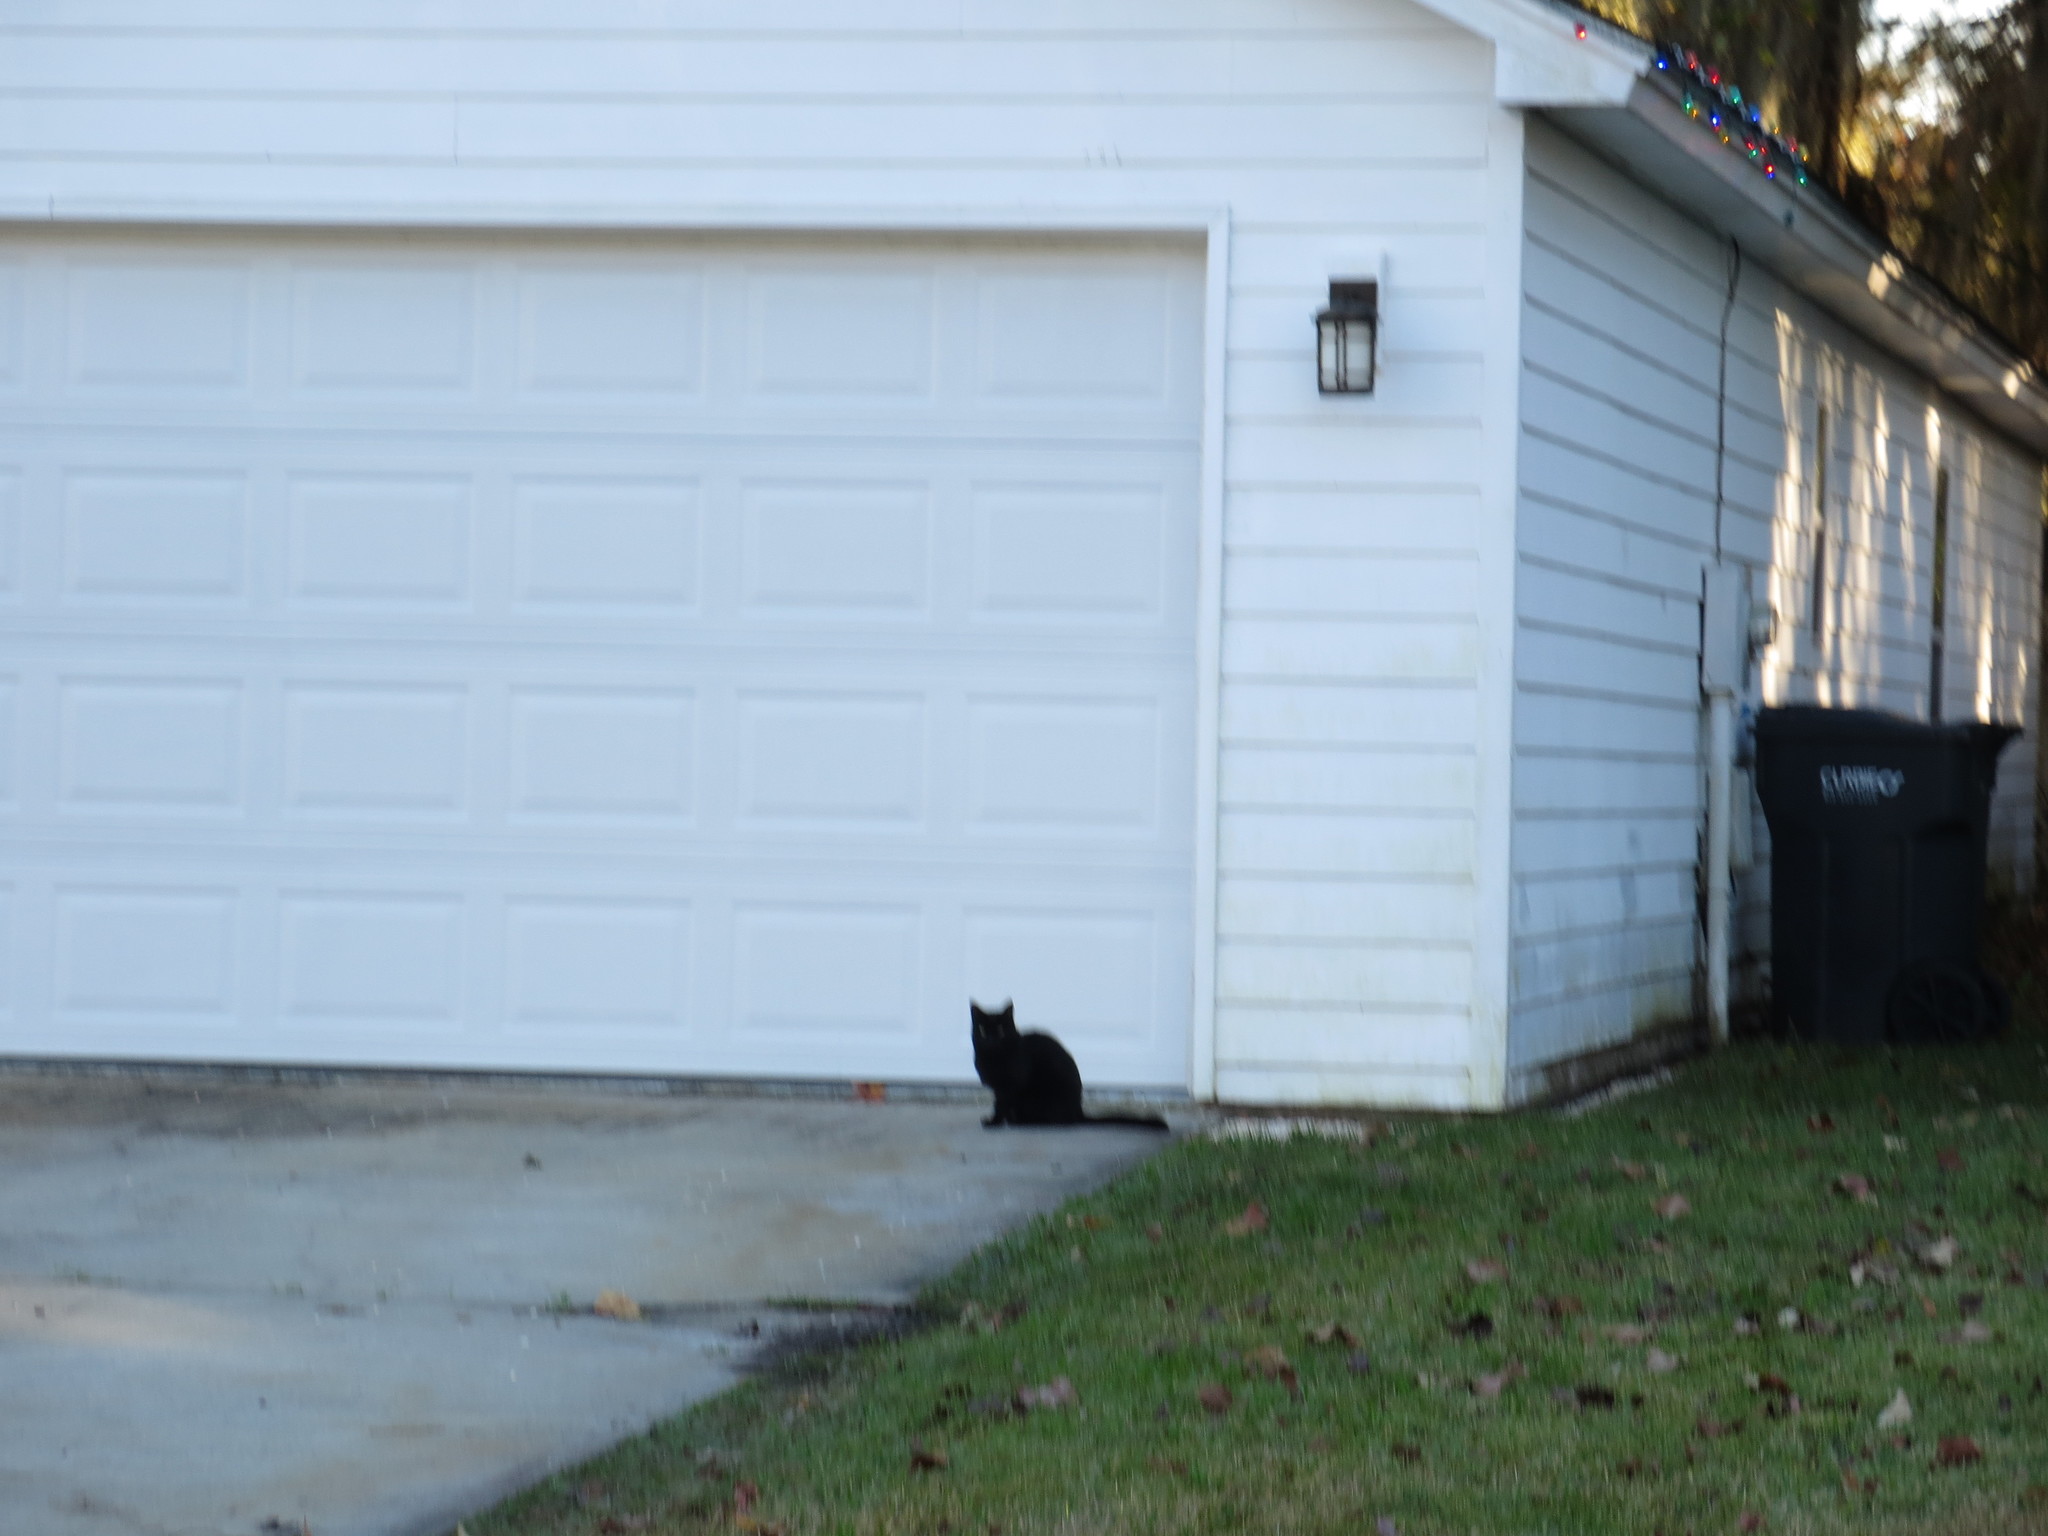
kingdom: Animalia
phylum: Chordata
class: Mammalia
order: Carnivora
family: Felidae
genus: Felis
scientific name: Felis catus
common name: Domestic cat
